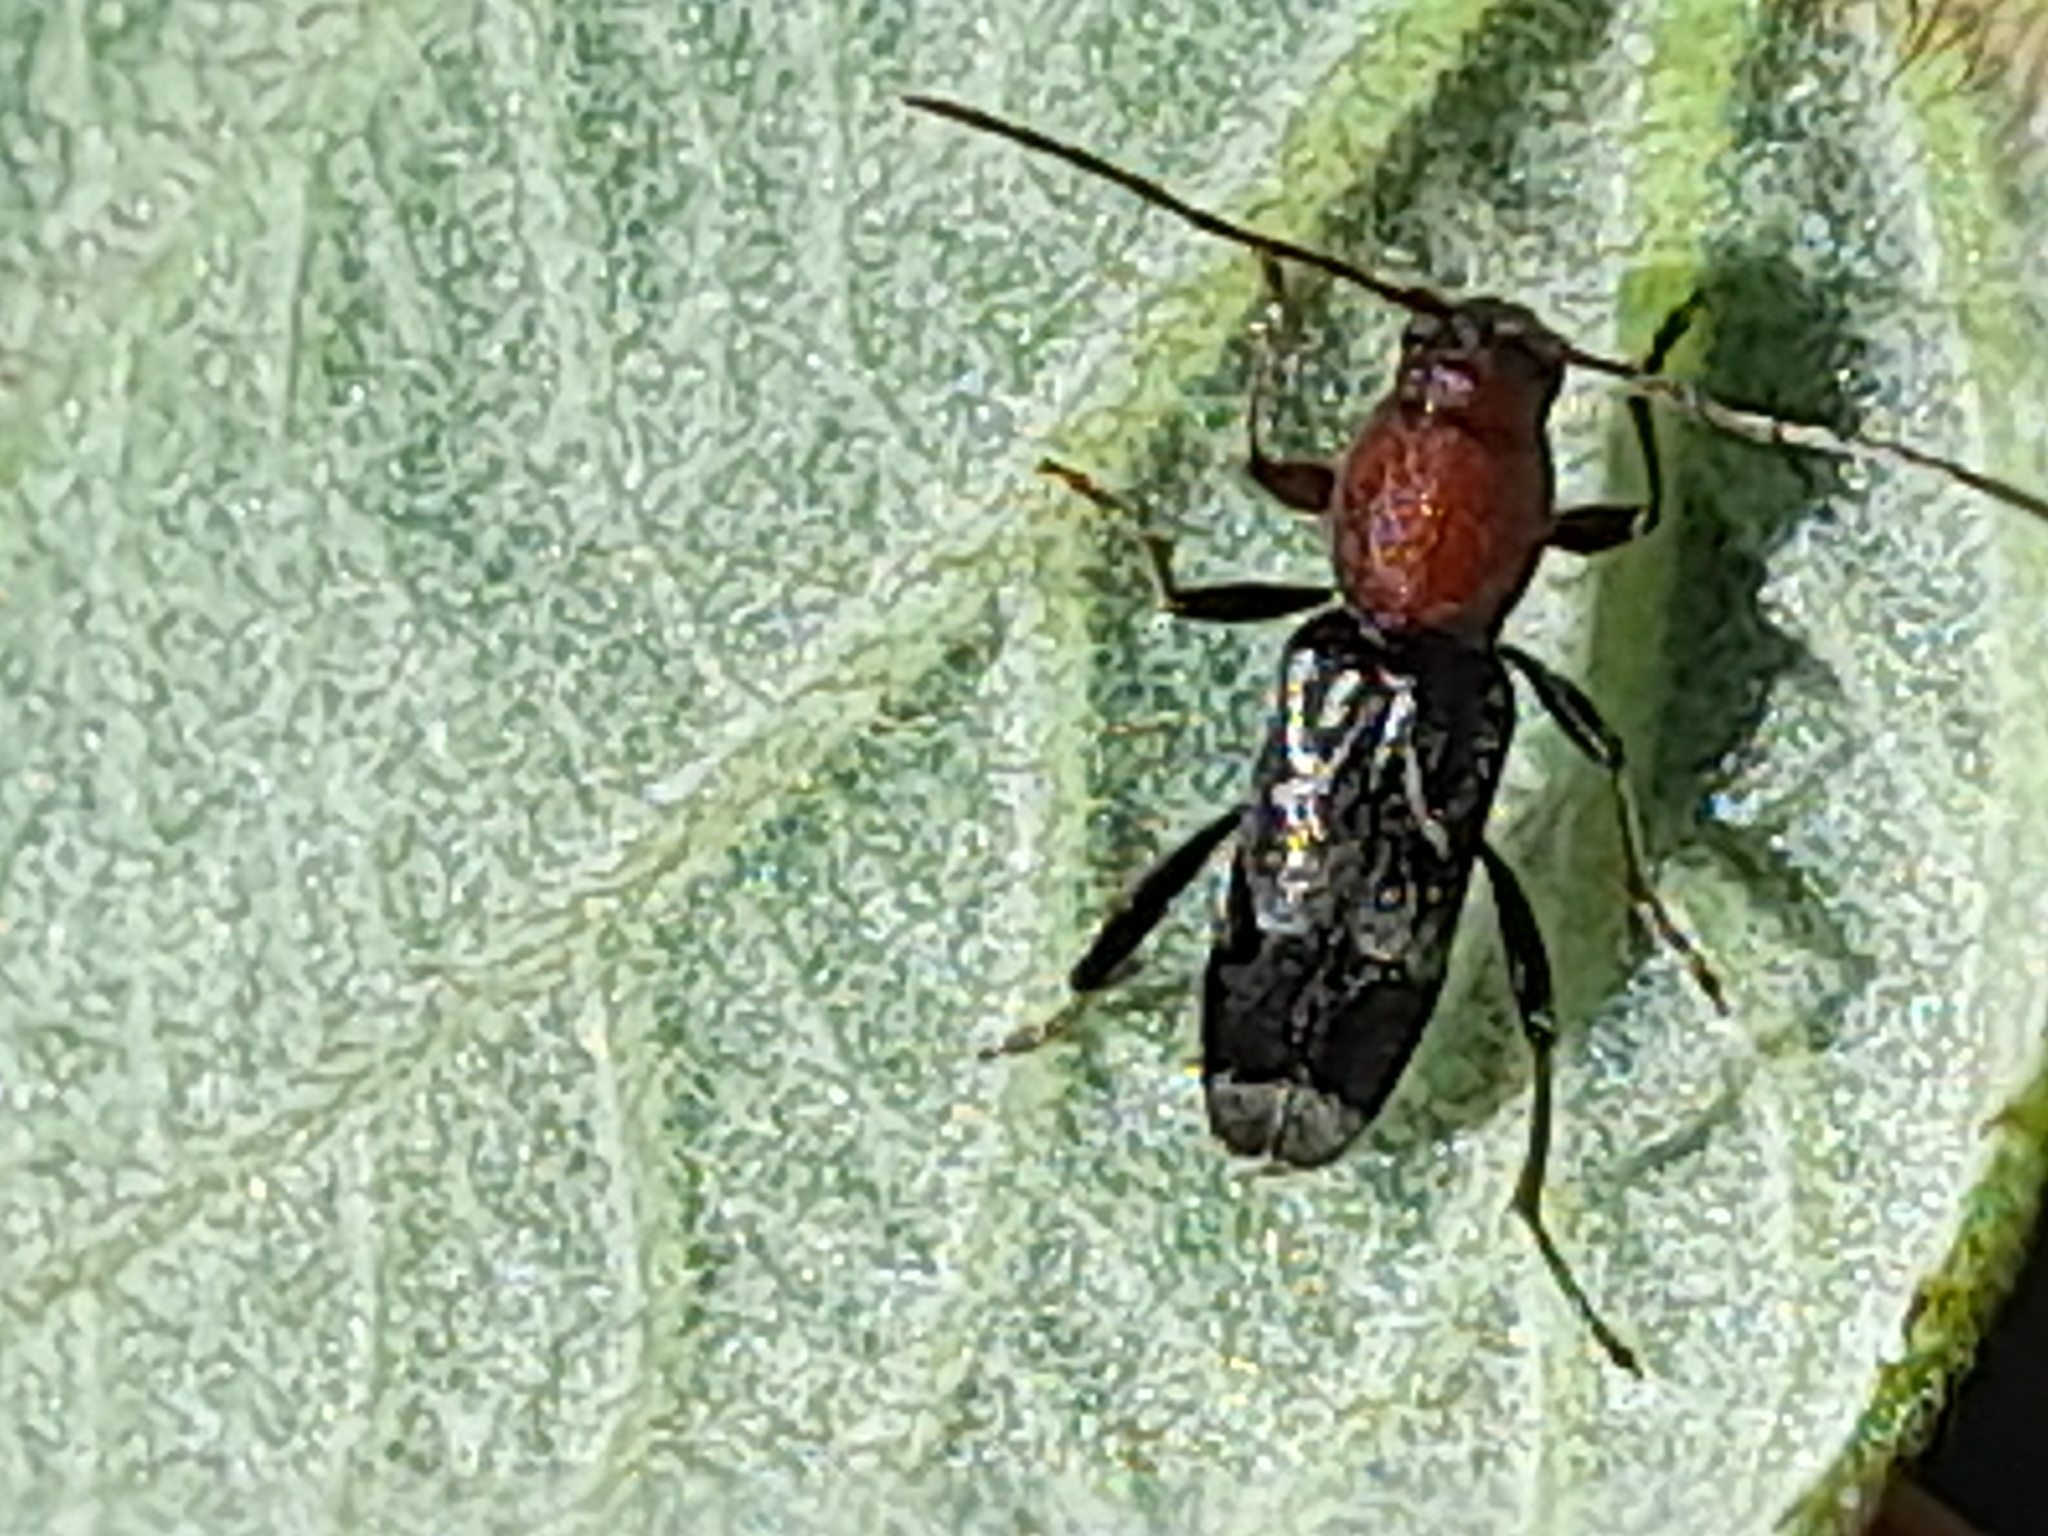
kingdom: Animalia
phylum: Arthropoda
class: Insecta
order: Coleoptera
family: Cerambycidae
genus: Chlorophorus
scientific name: Chlorophorus ruficornis
